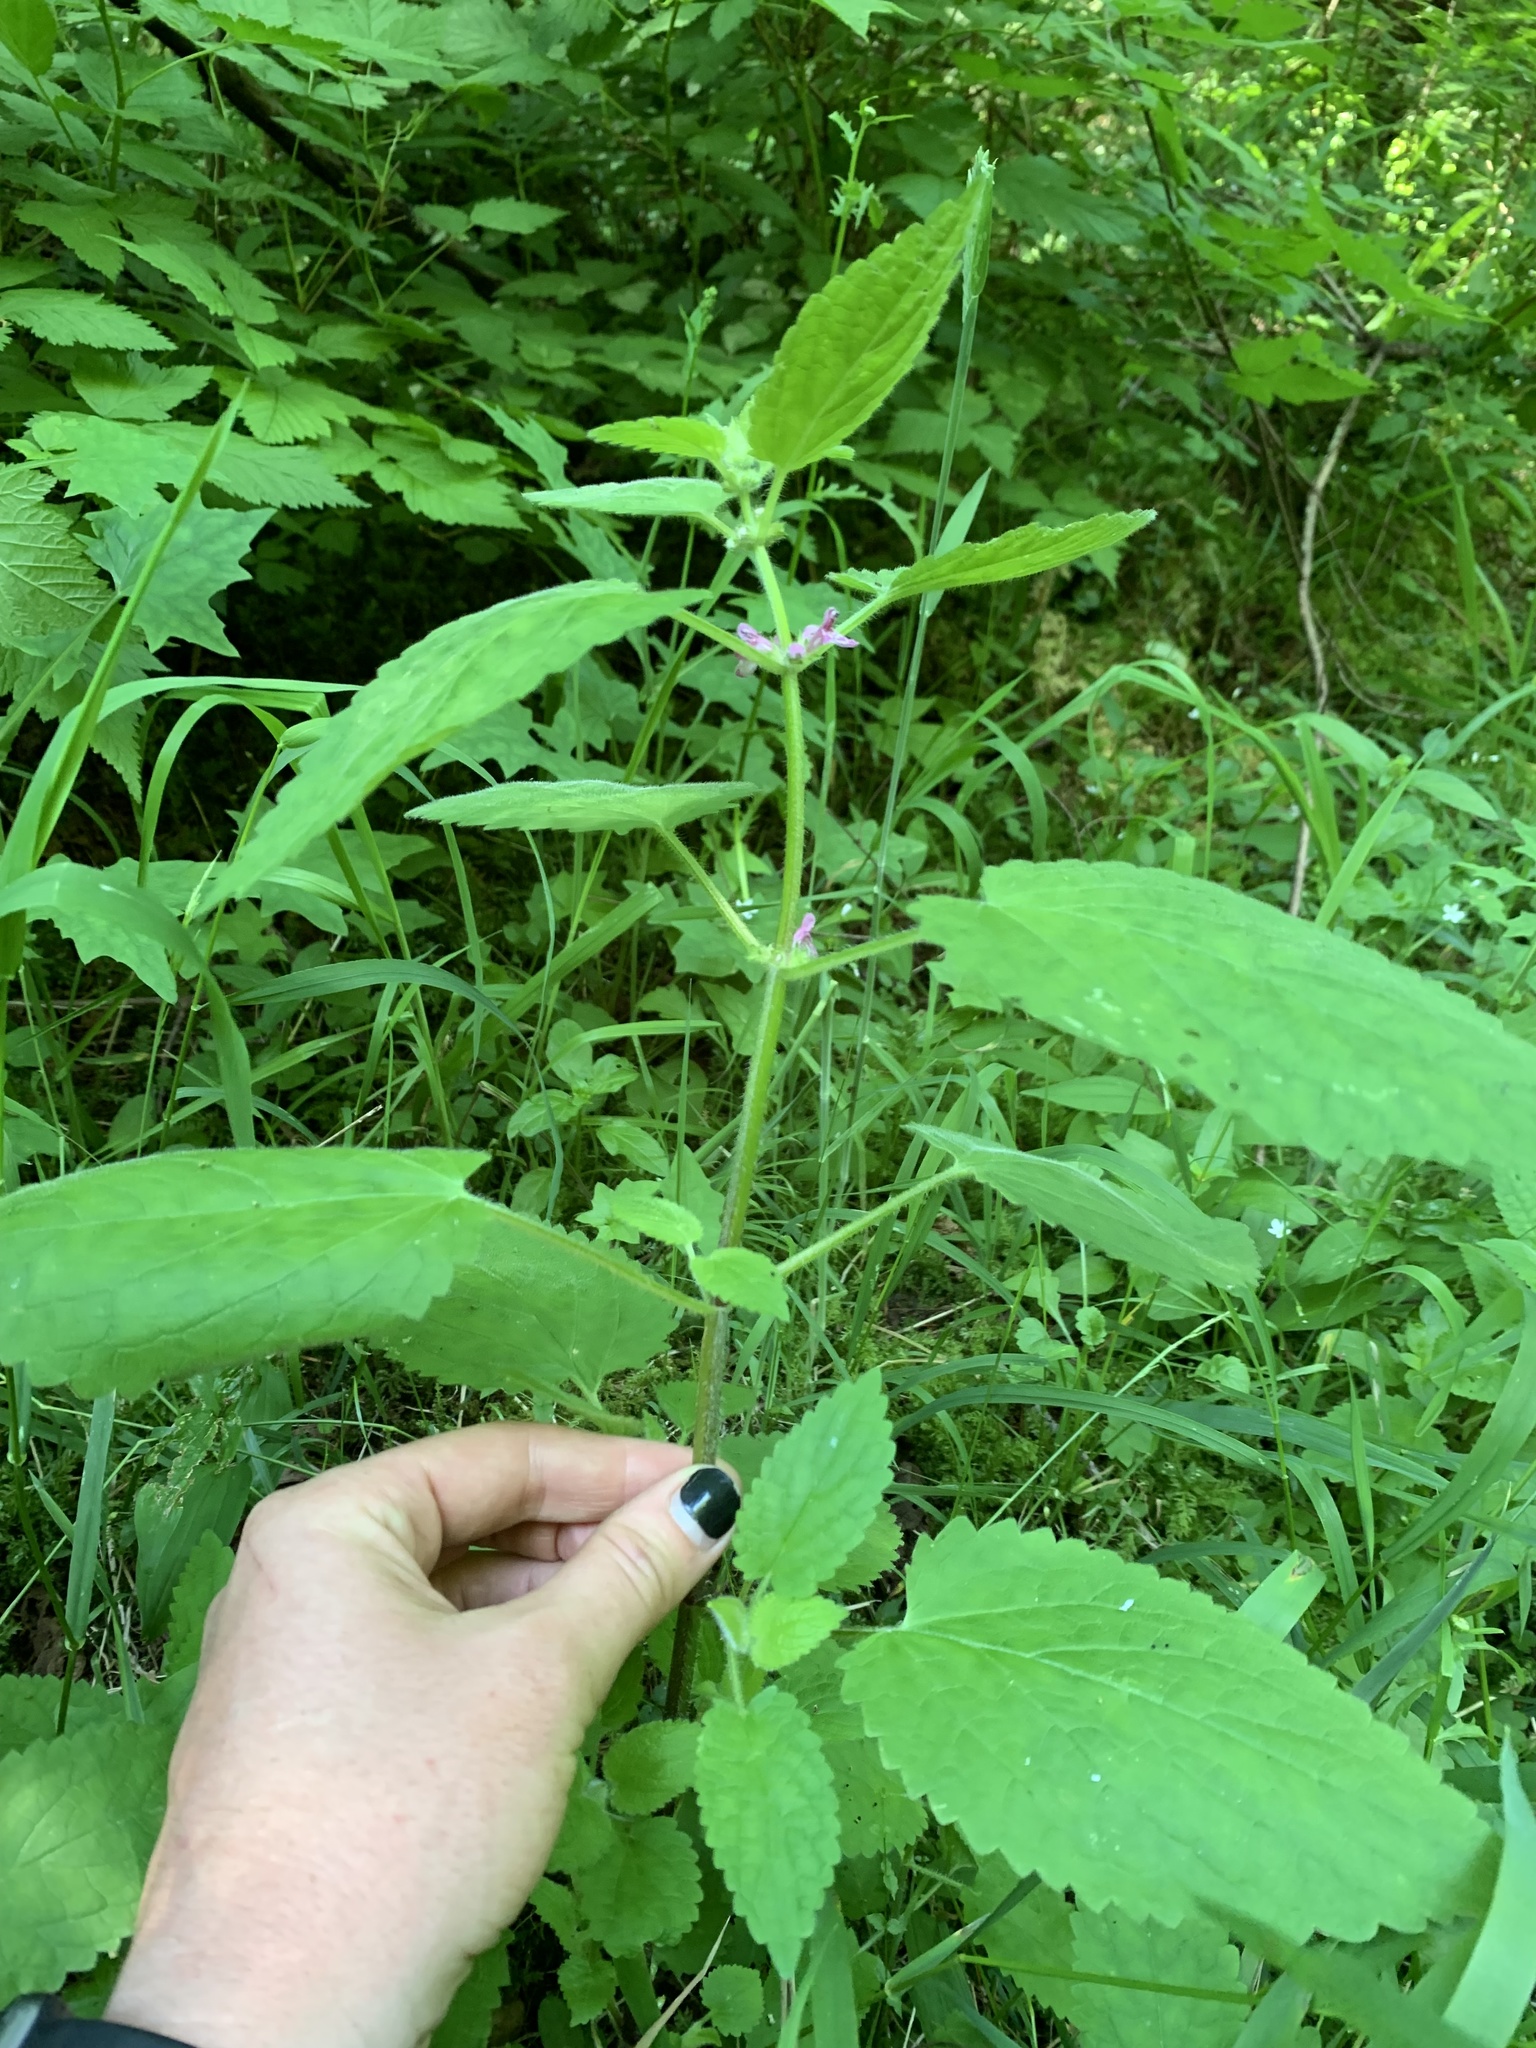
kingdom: Plantae
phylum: Tracheophyta
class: Magnoliopsida
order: Lamiales
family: Lamiaceae
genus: Stachys
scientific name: Stachys mexicana
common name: Mexican hedge-nettle
